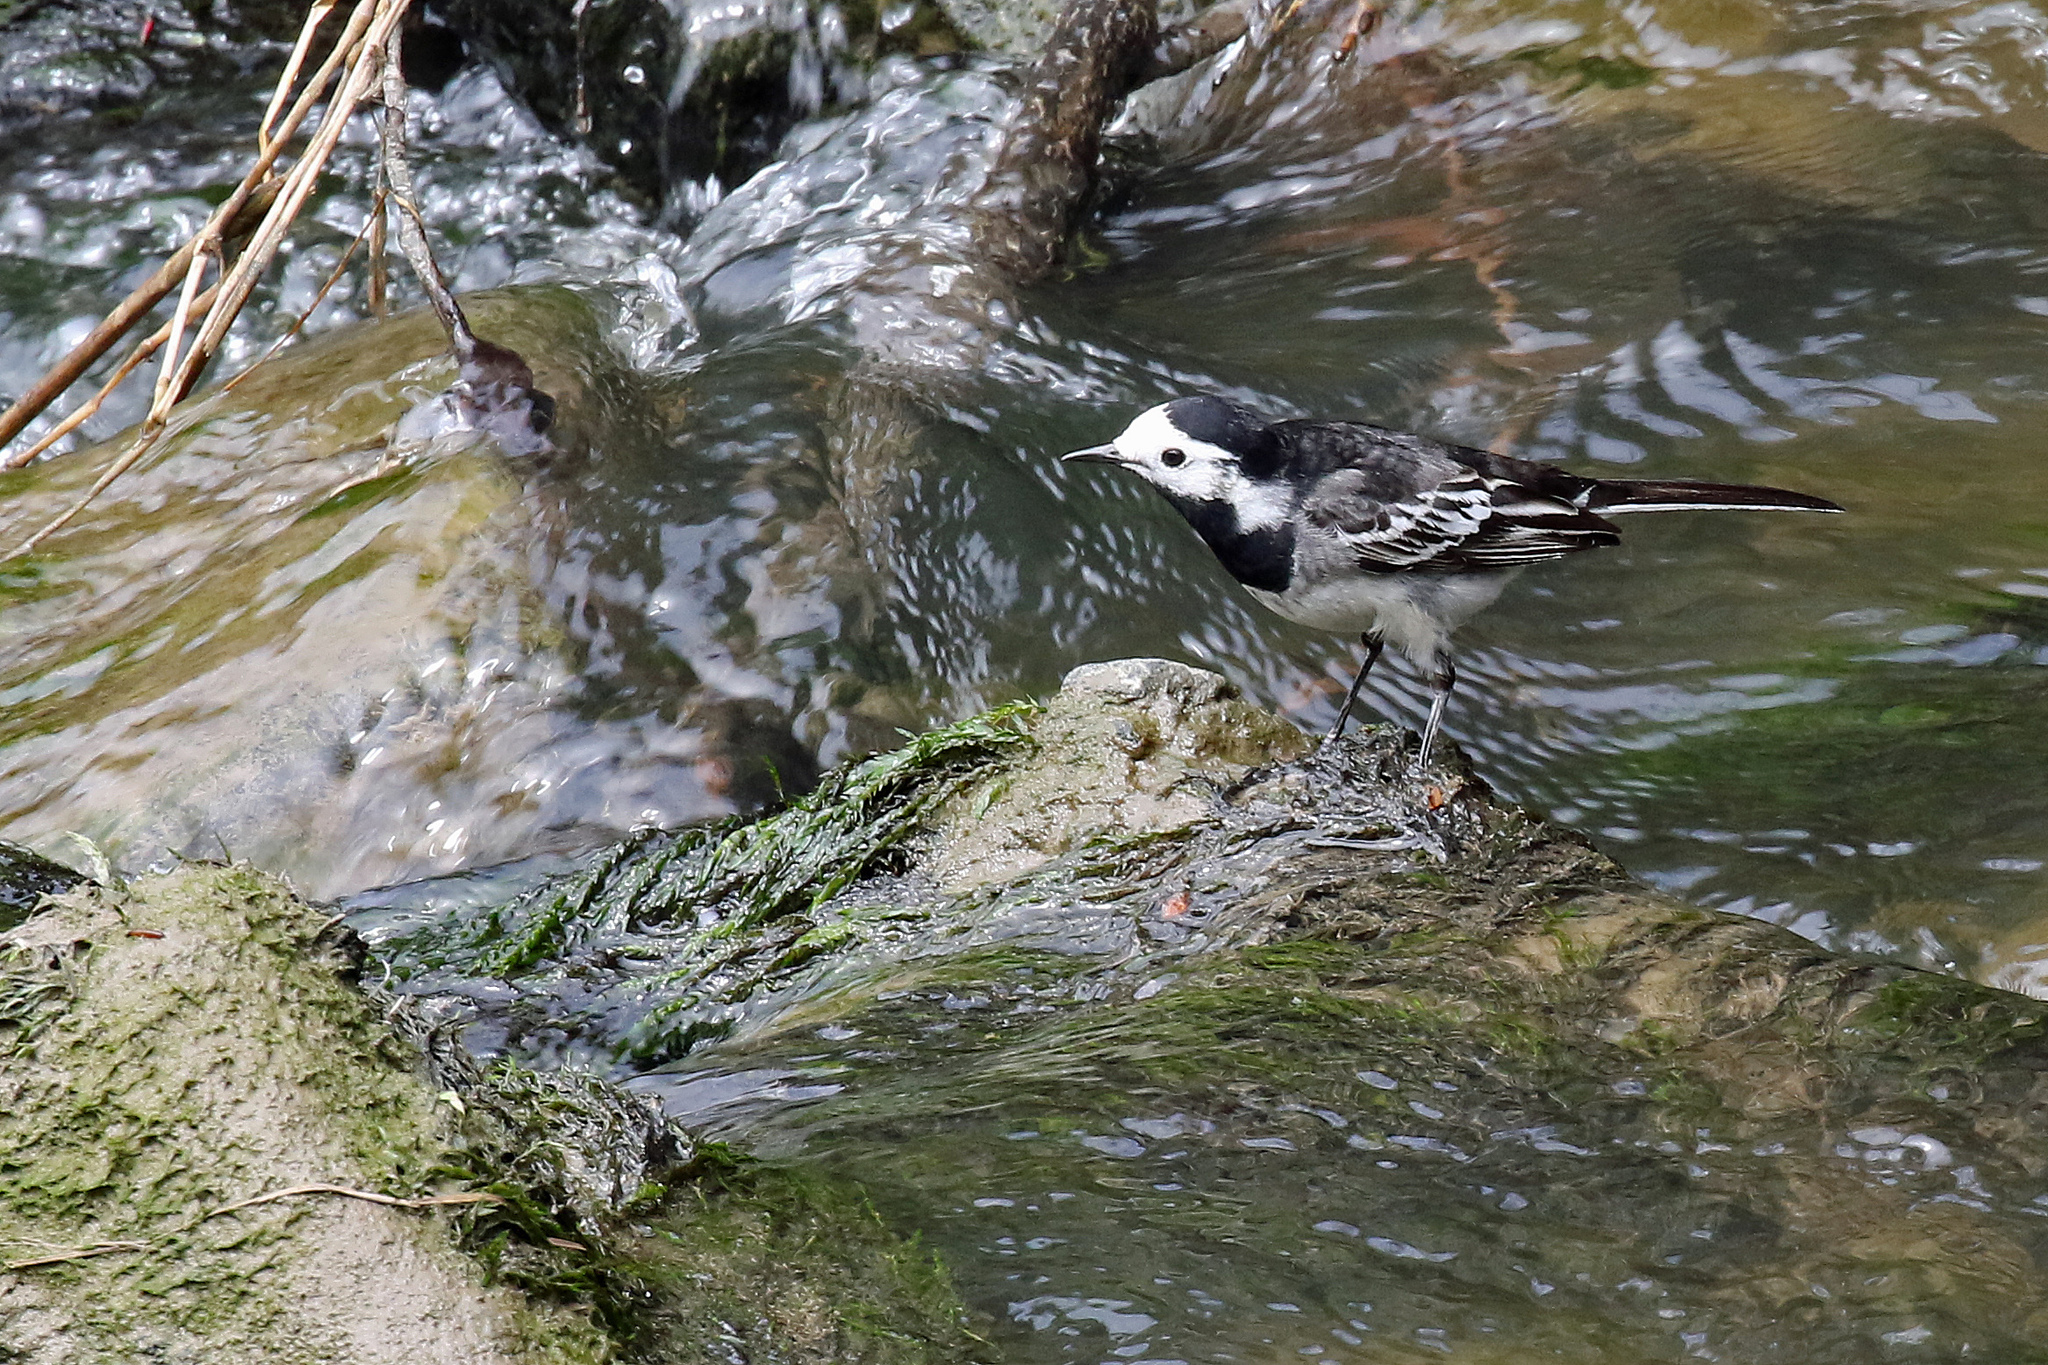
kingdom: Animalia
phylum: Chordata
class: Aves
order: Passeriformes
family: Motacillidae
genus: Motacilla
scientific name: Motacilla alba
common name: White wagtail
